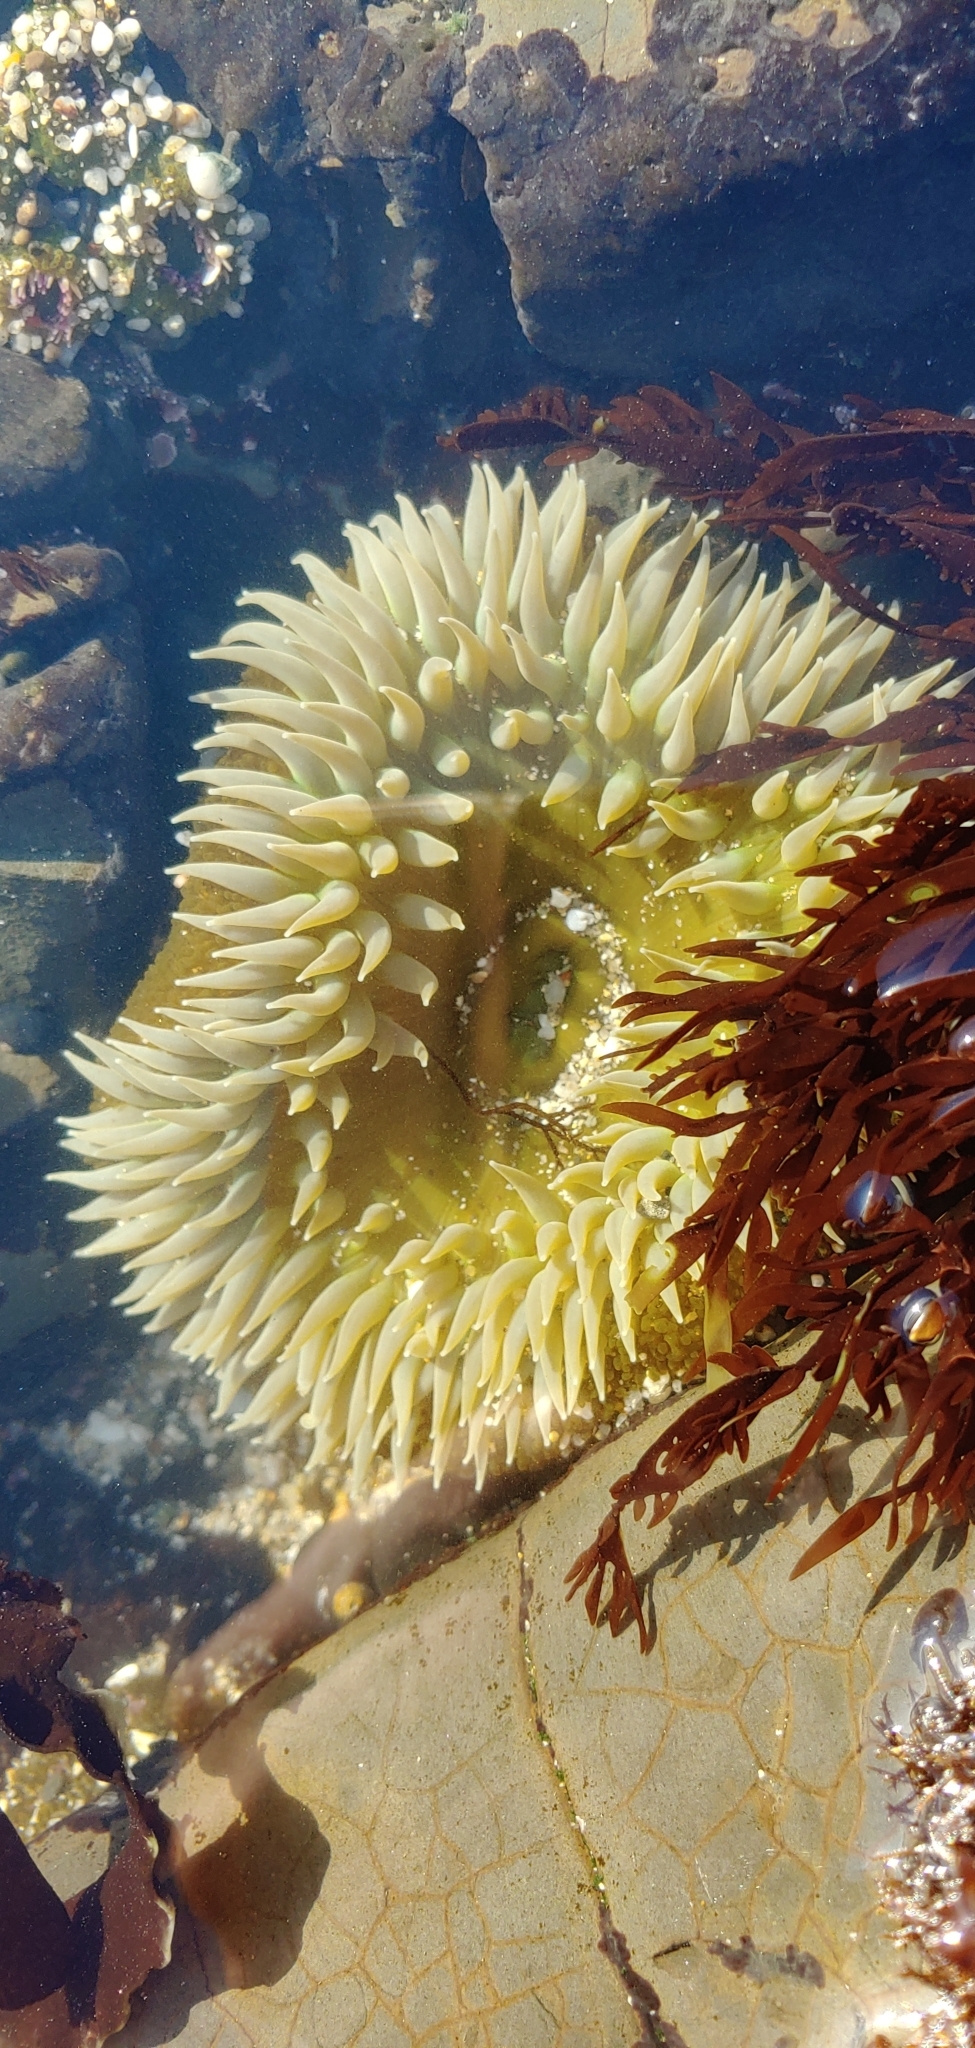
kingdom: Animalia
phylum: Cnidaria
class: Anthozoa
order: Actiniaria
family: Actiniidae
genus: Anthopleura
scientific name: Anthopleura xanthogrammica
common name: Giant green anemone
